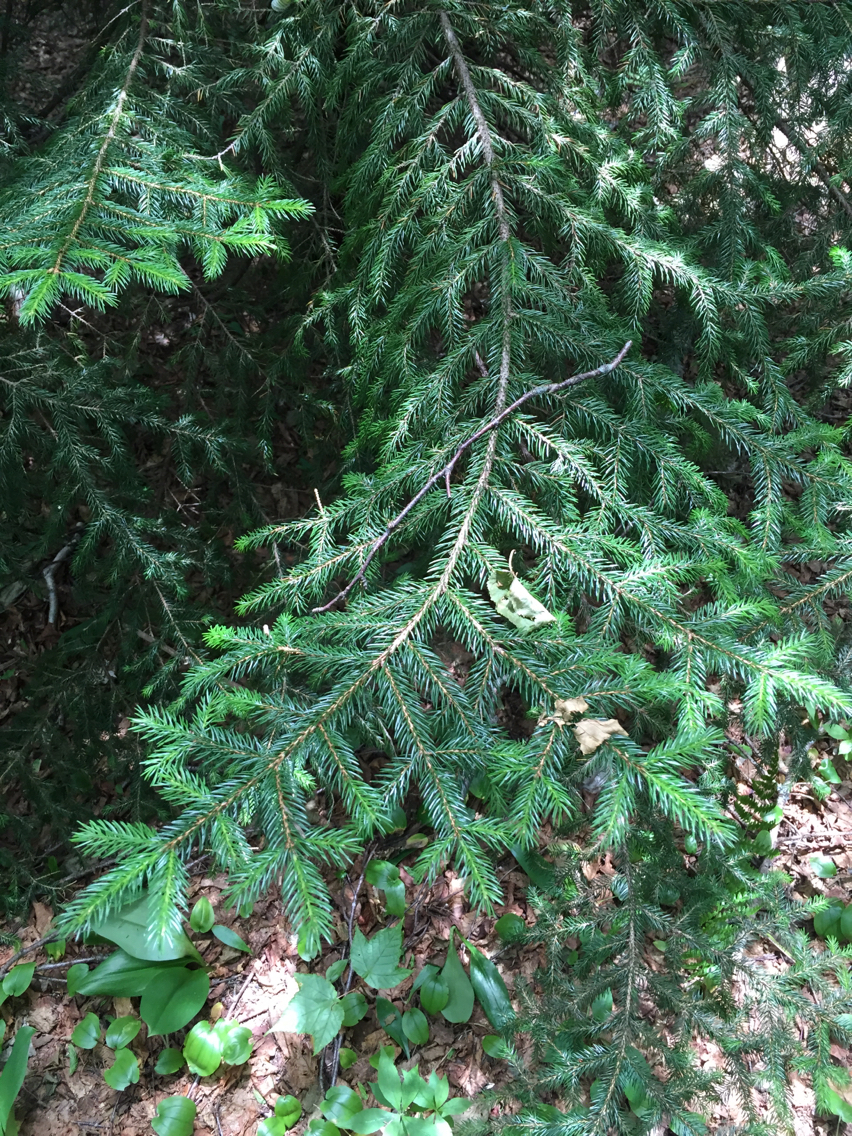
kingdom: Plantae
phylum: Tracheophyta
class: Pinopsida
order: Pinales
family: Pinaceae
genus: Picea
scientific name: Picea rubens
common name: Red spruce
